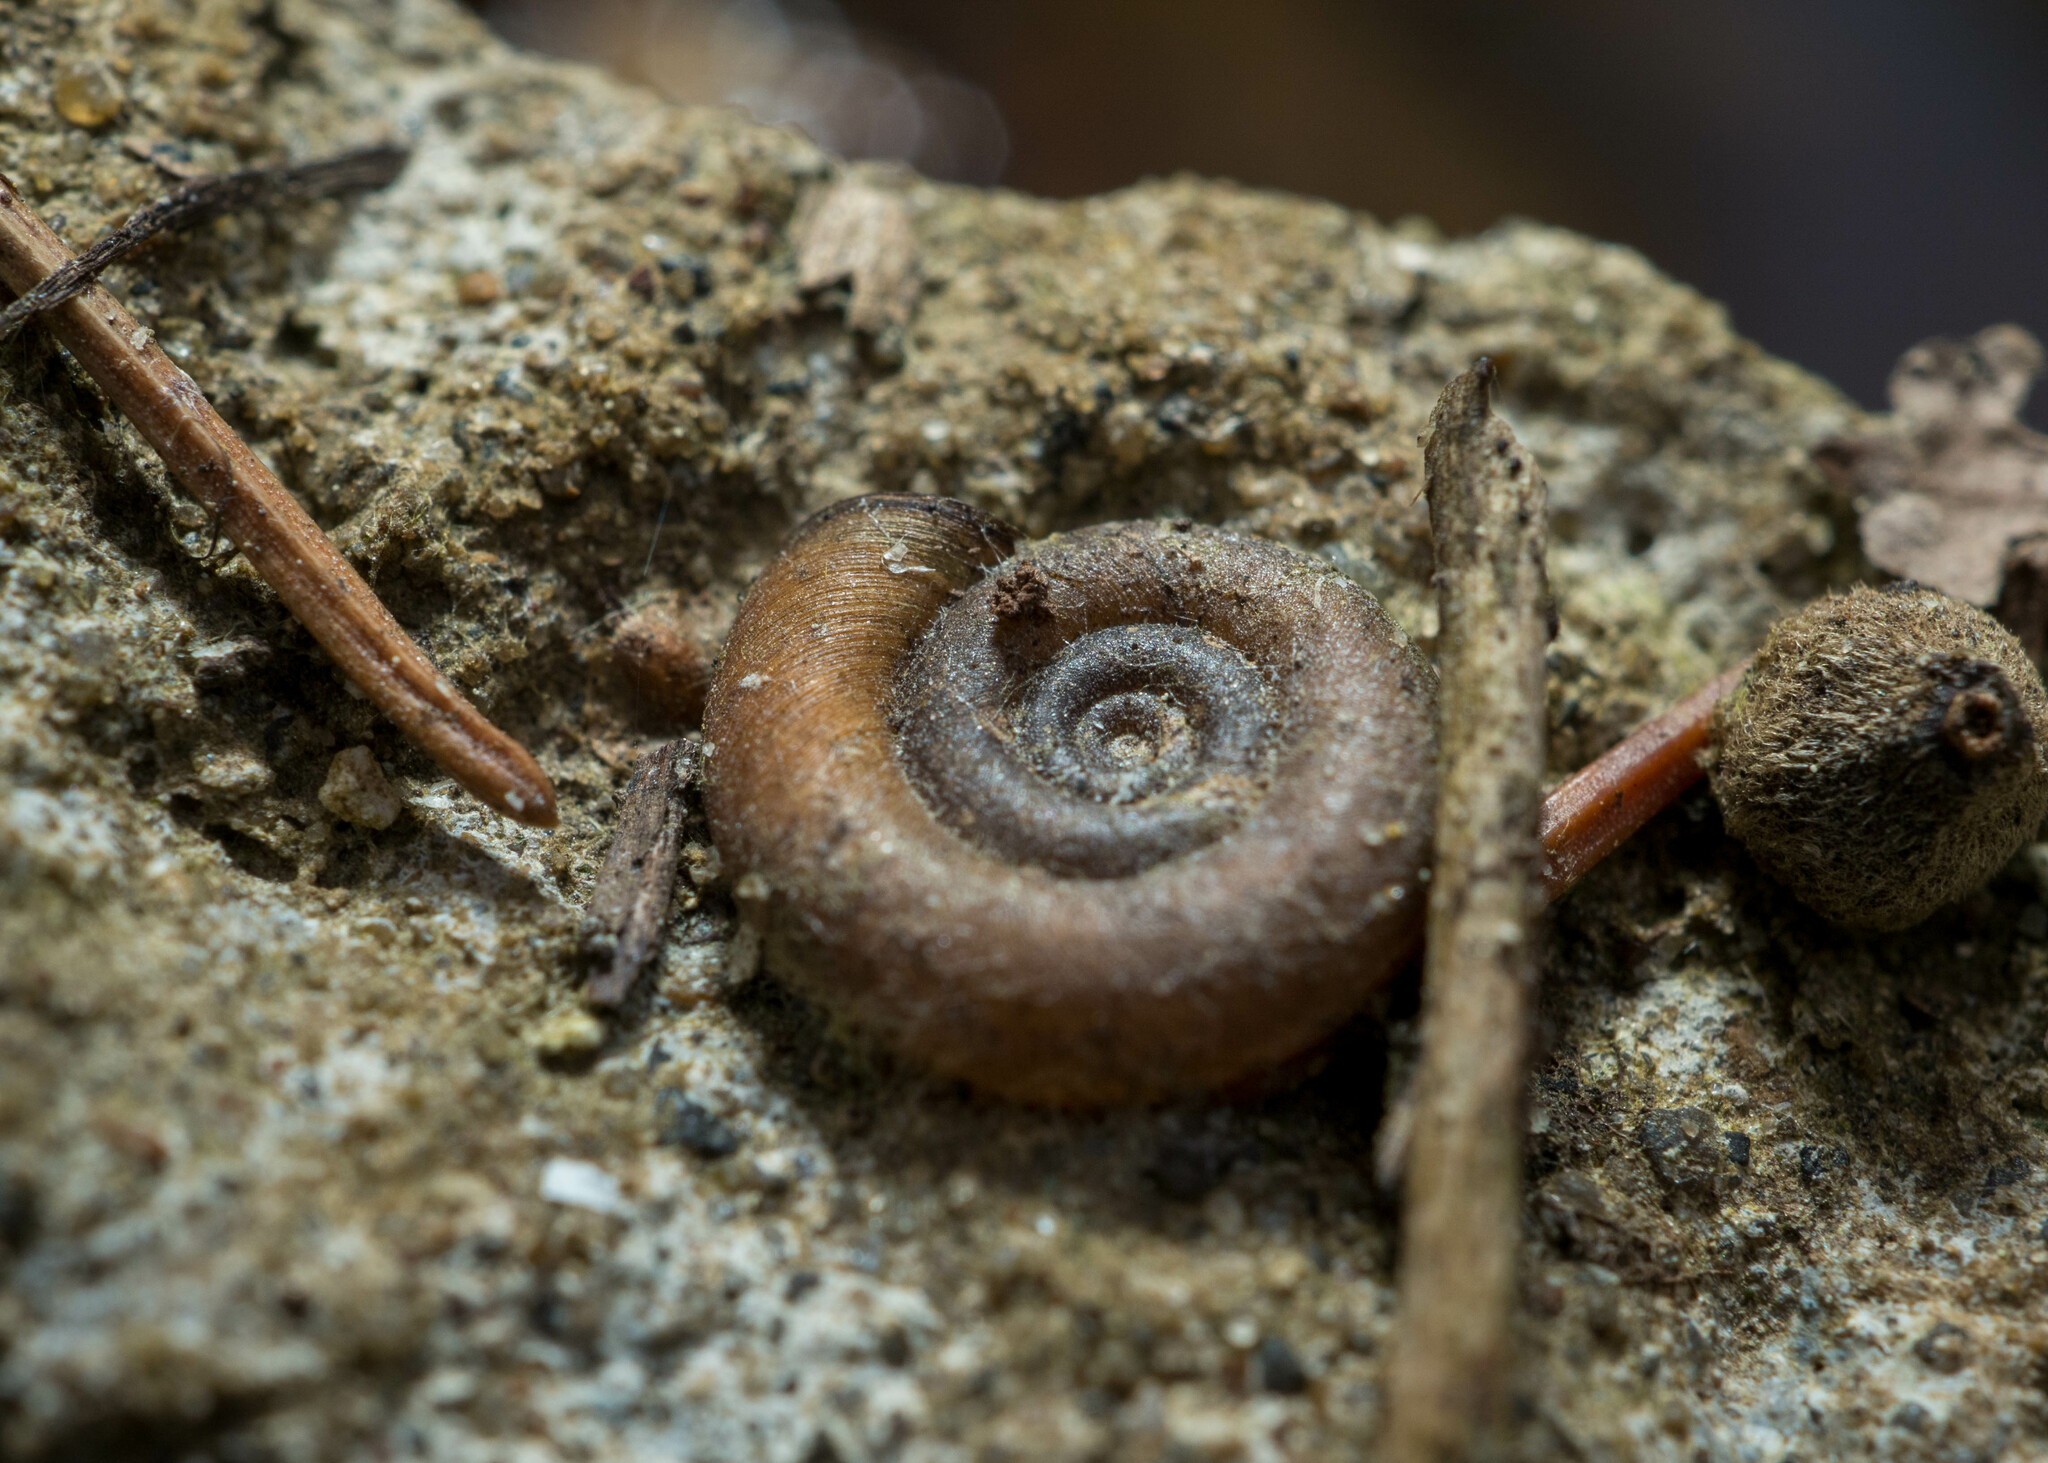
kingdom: Animalia
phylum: Mollusca
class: Gastropoda
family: Planorbidae
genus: Planorbis
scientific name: Planorbis planorbis
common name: Margined ramshorn
